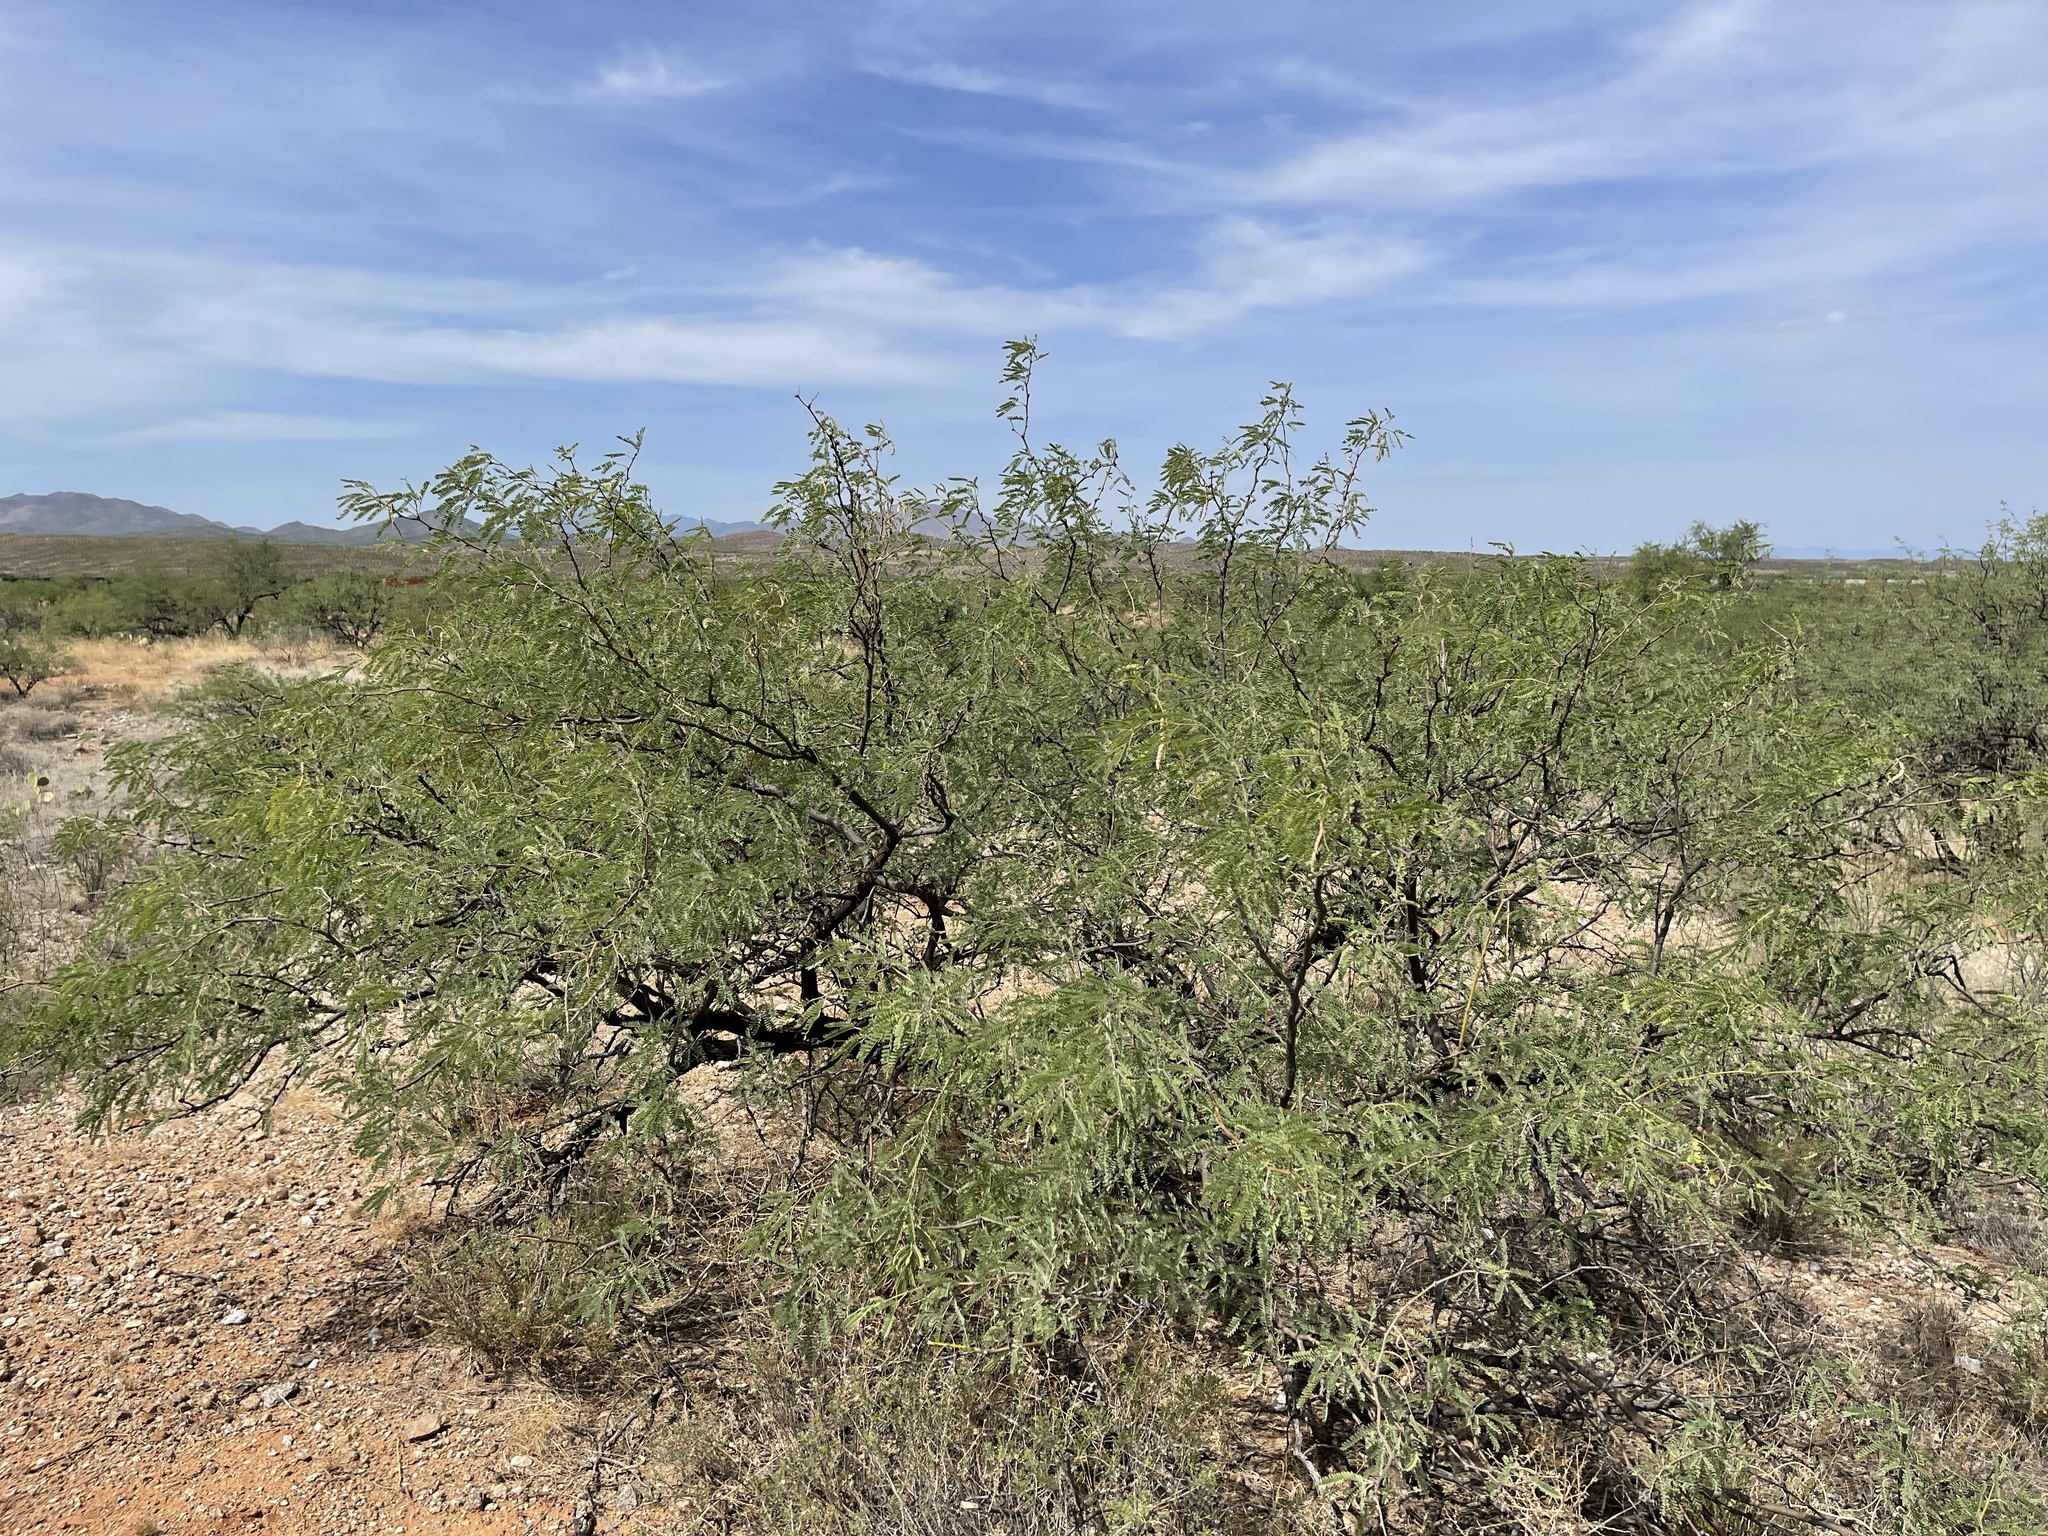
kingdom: Plantae
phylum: Tracheophyta
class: Magnoliopsida
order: Fabales
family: Fabaceae
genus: Prosopis
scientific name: Prosopis glandulosa
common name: Honey mesquite
